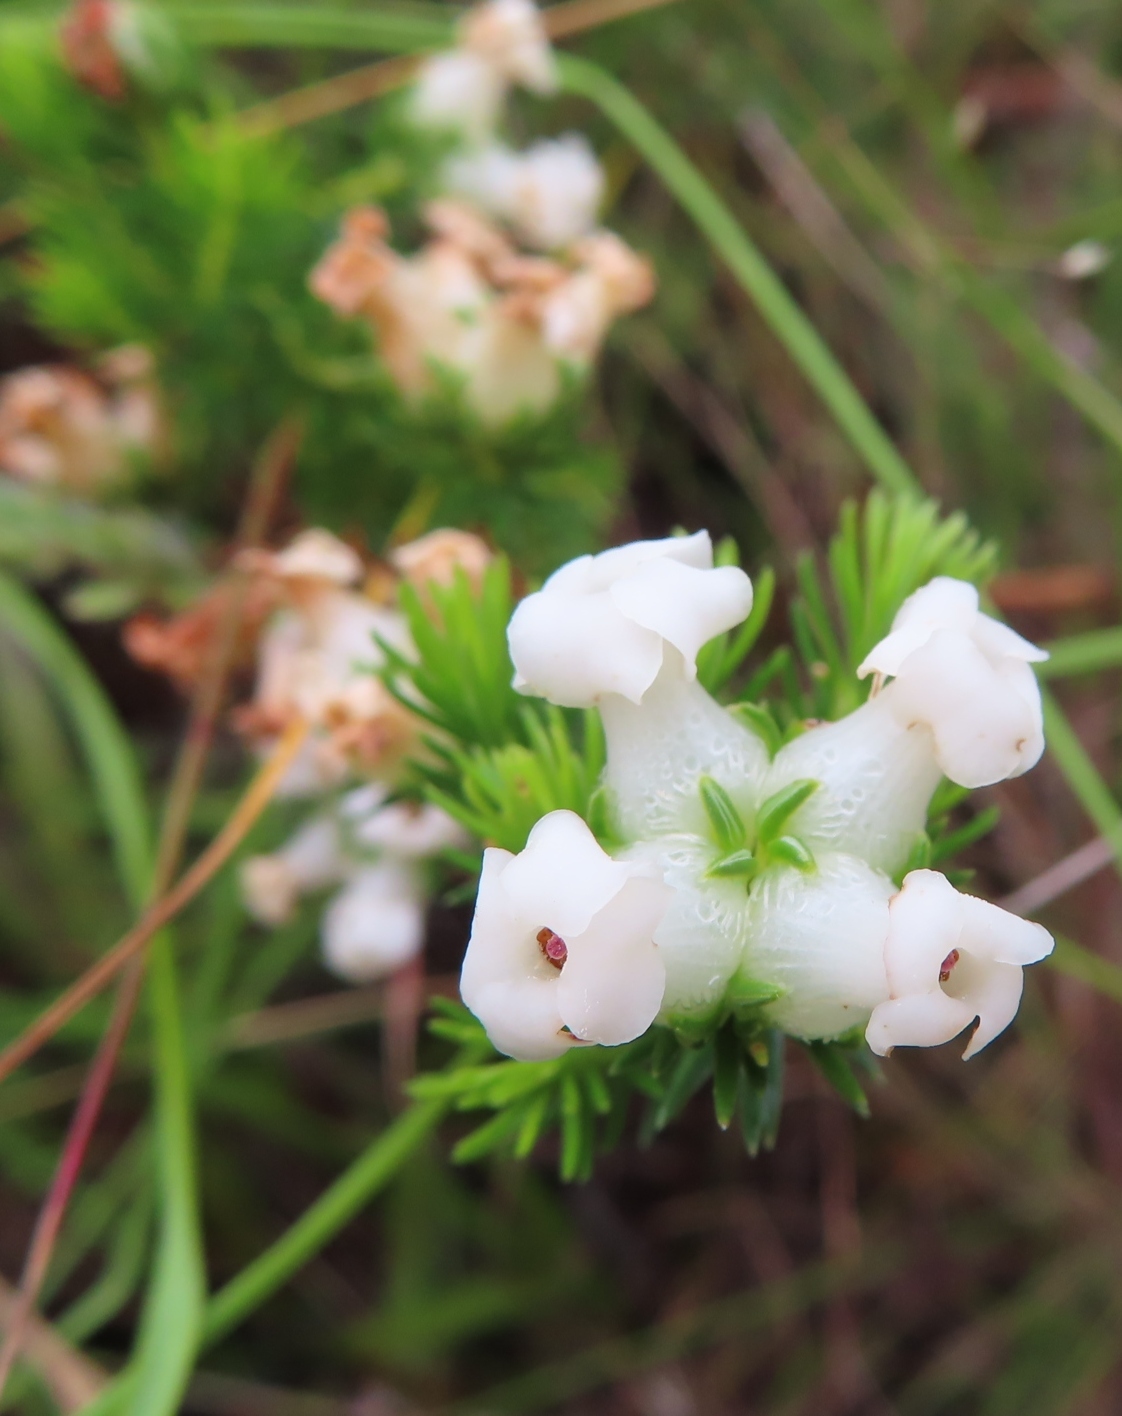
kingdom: Plantae
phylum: Tracheophyta
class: Magnoliopsida
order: Ericales
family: Ericaceae
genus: Erica
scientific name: Erica denticulata
